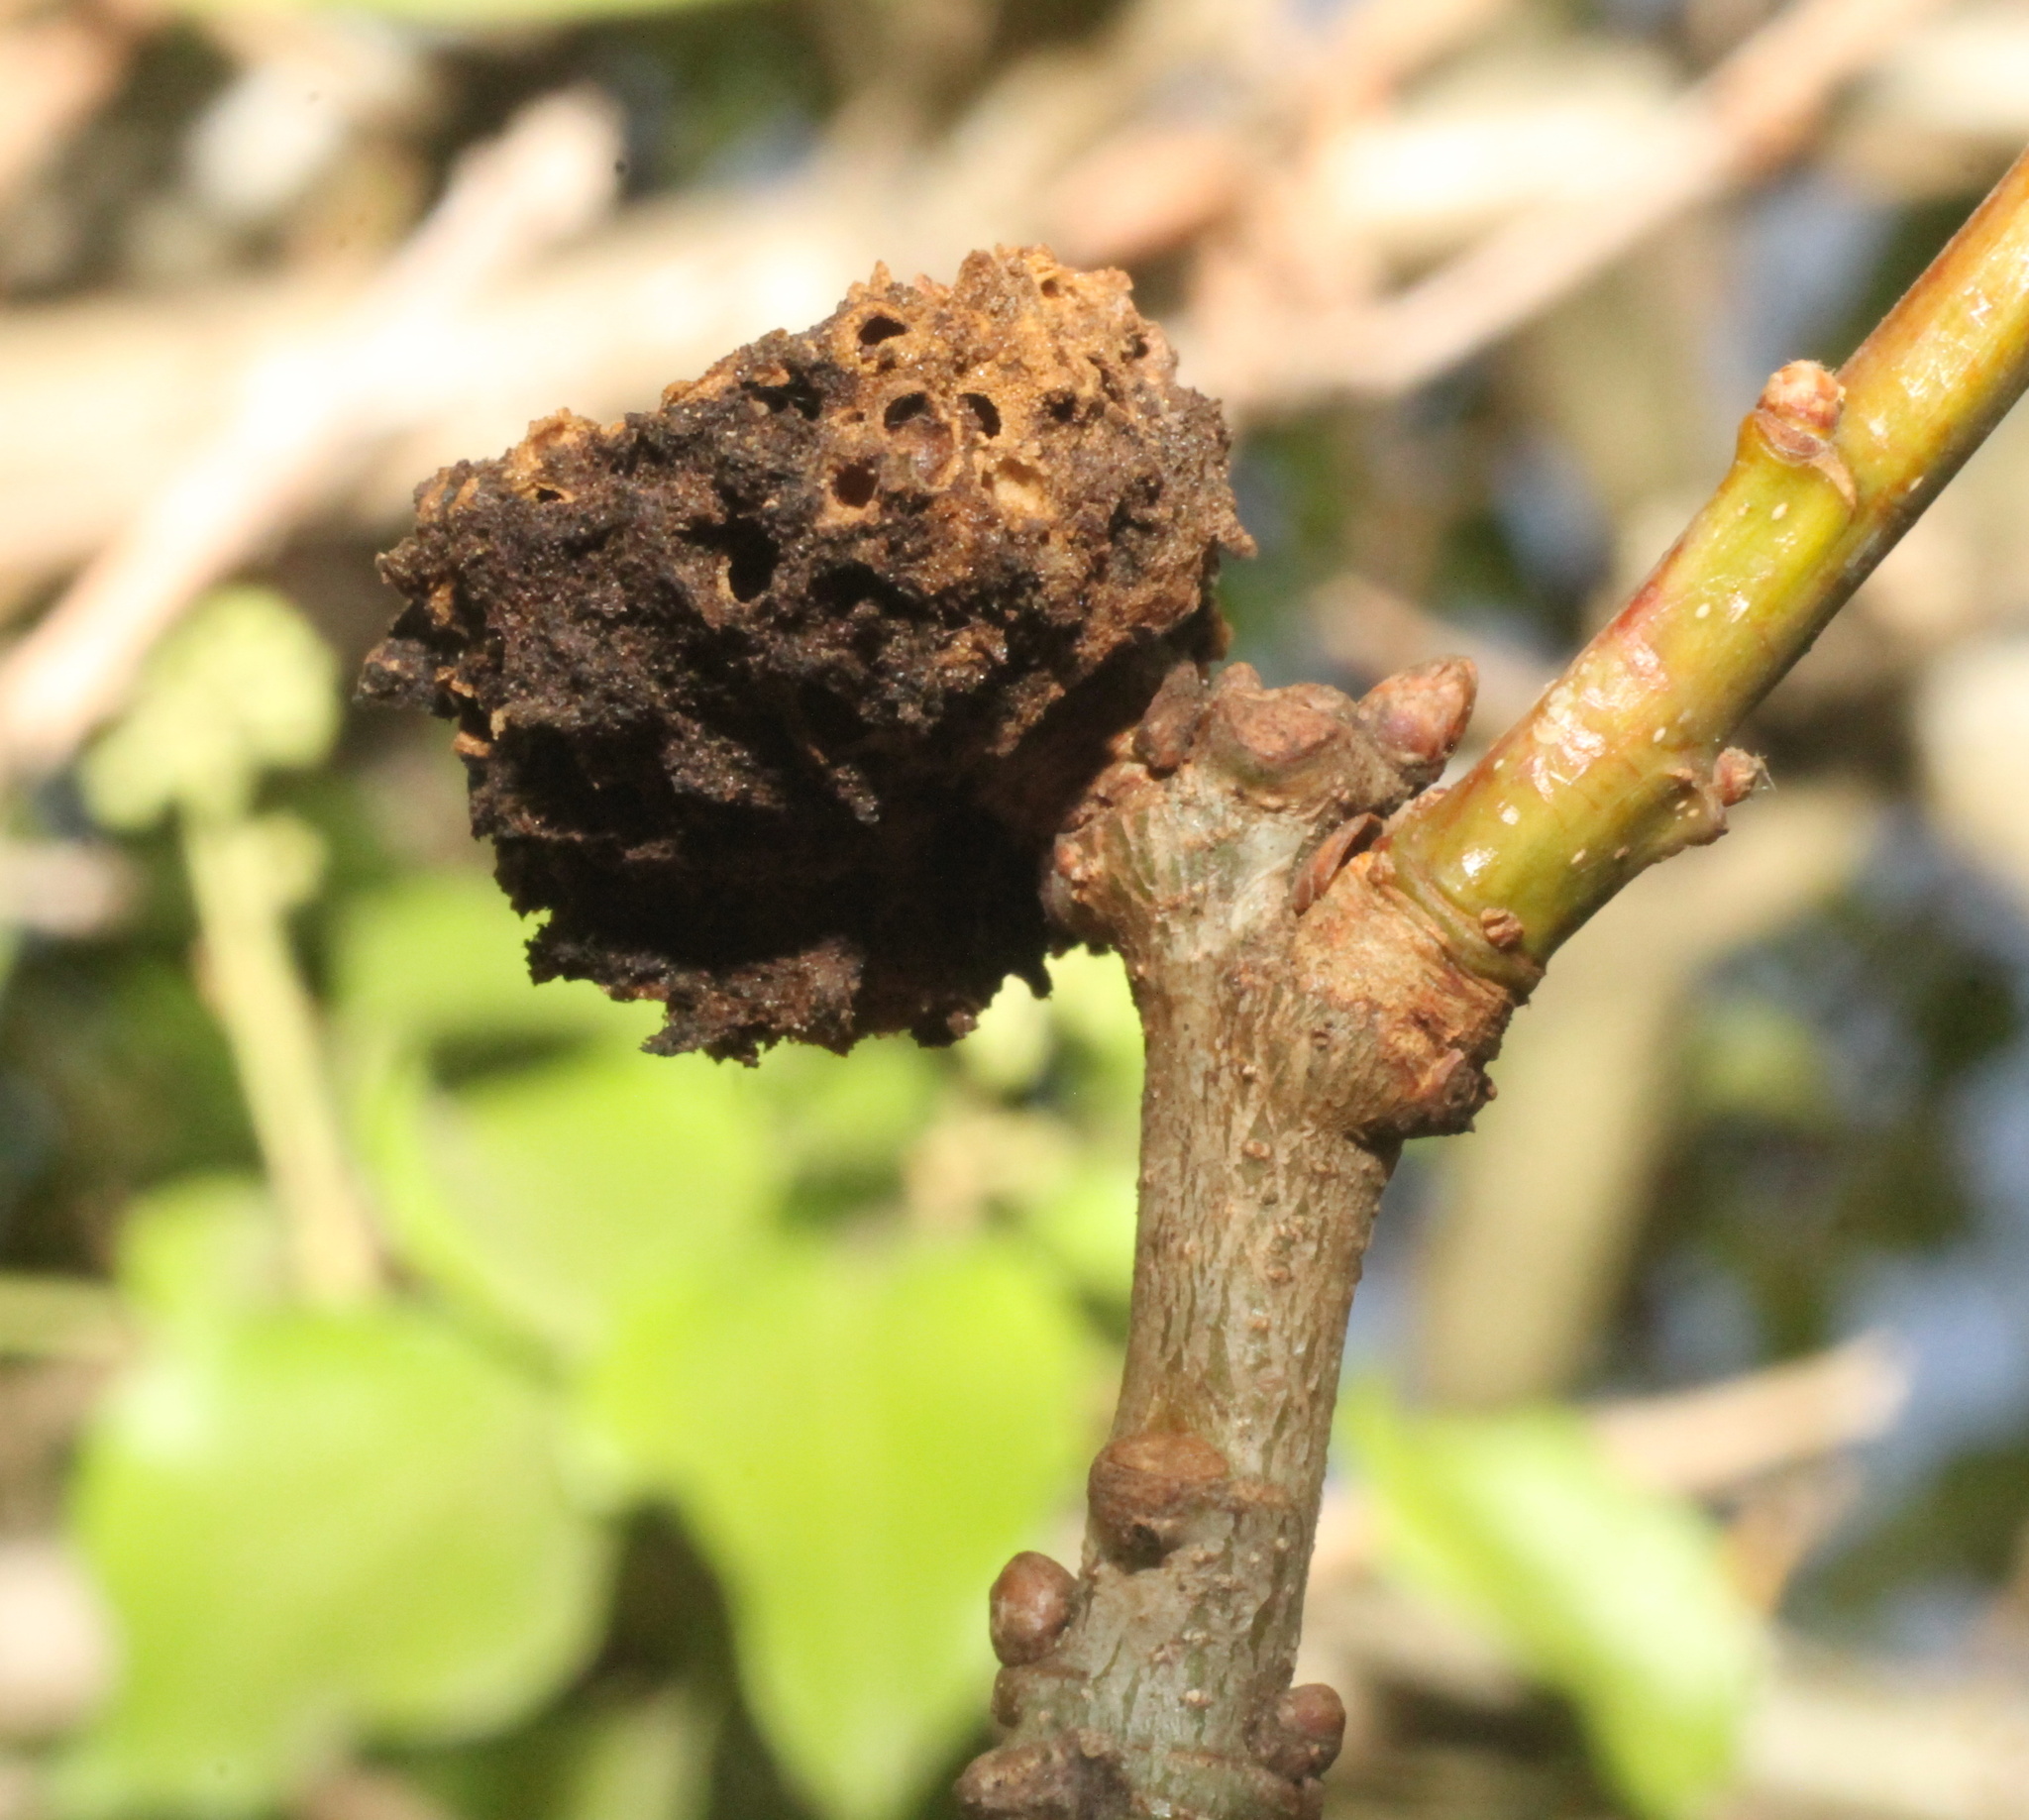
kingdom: Animalia
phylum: Arthropoda
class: Insecta
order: Hymenoptera
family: Cynipidae
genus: Biorhiza
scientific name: Biorhiza pallida
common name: Oak apple
